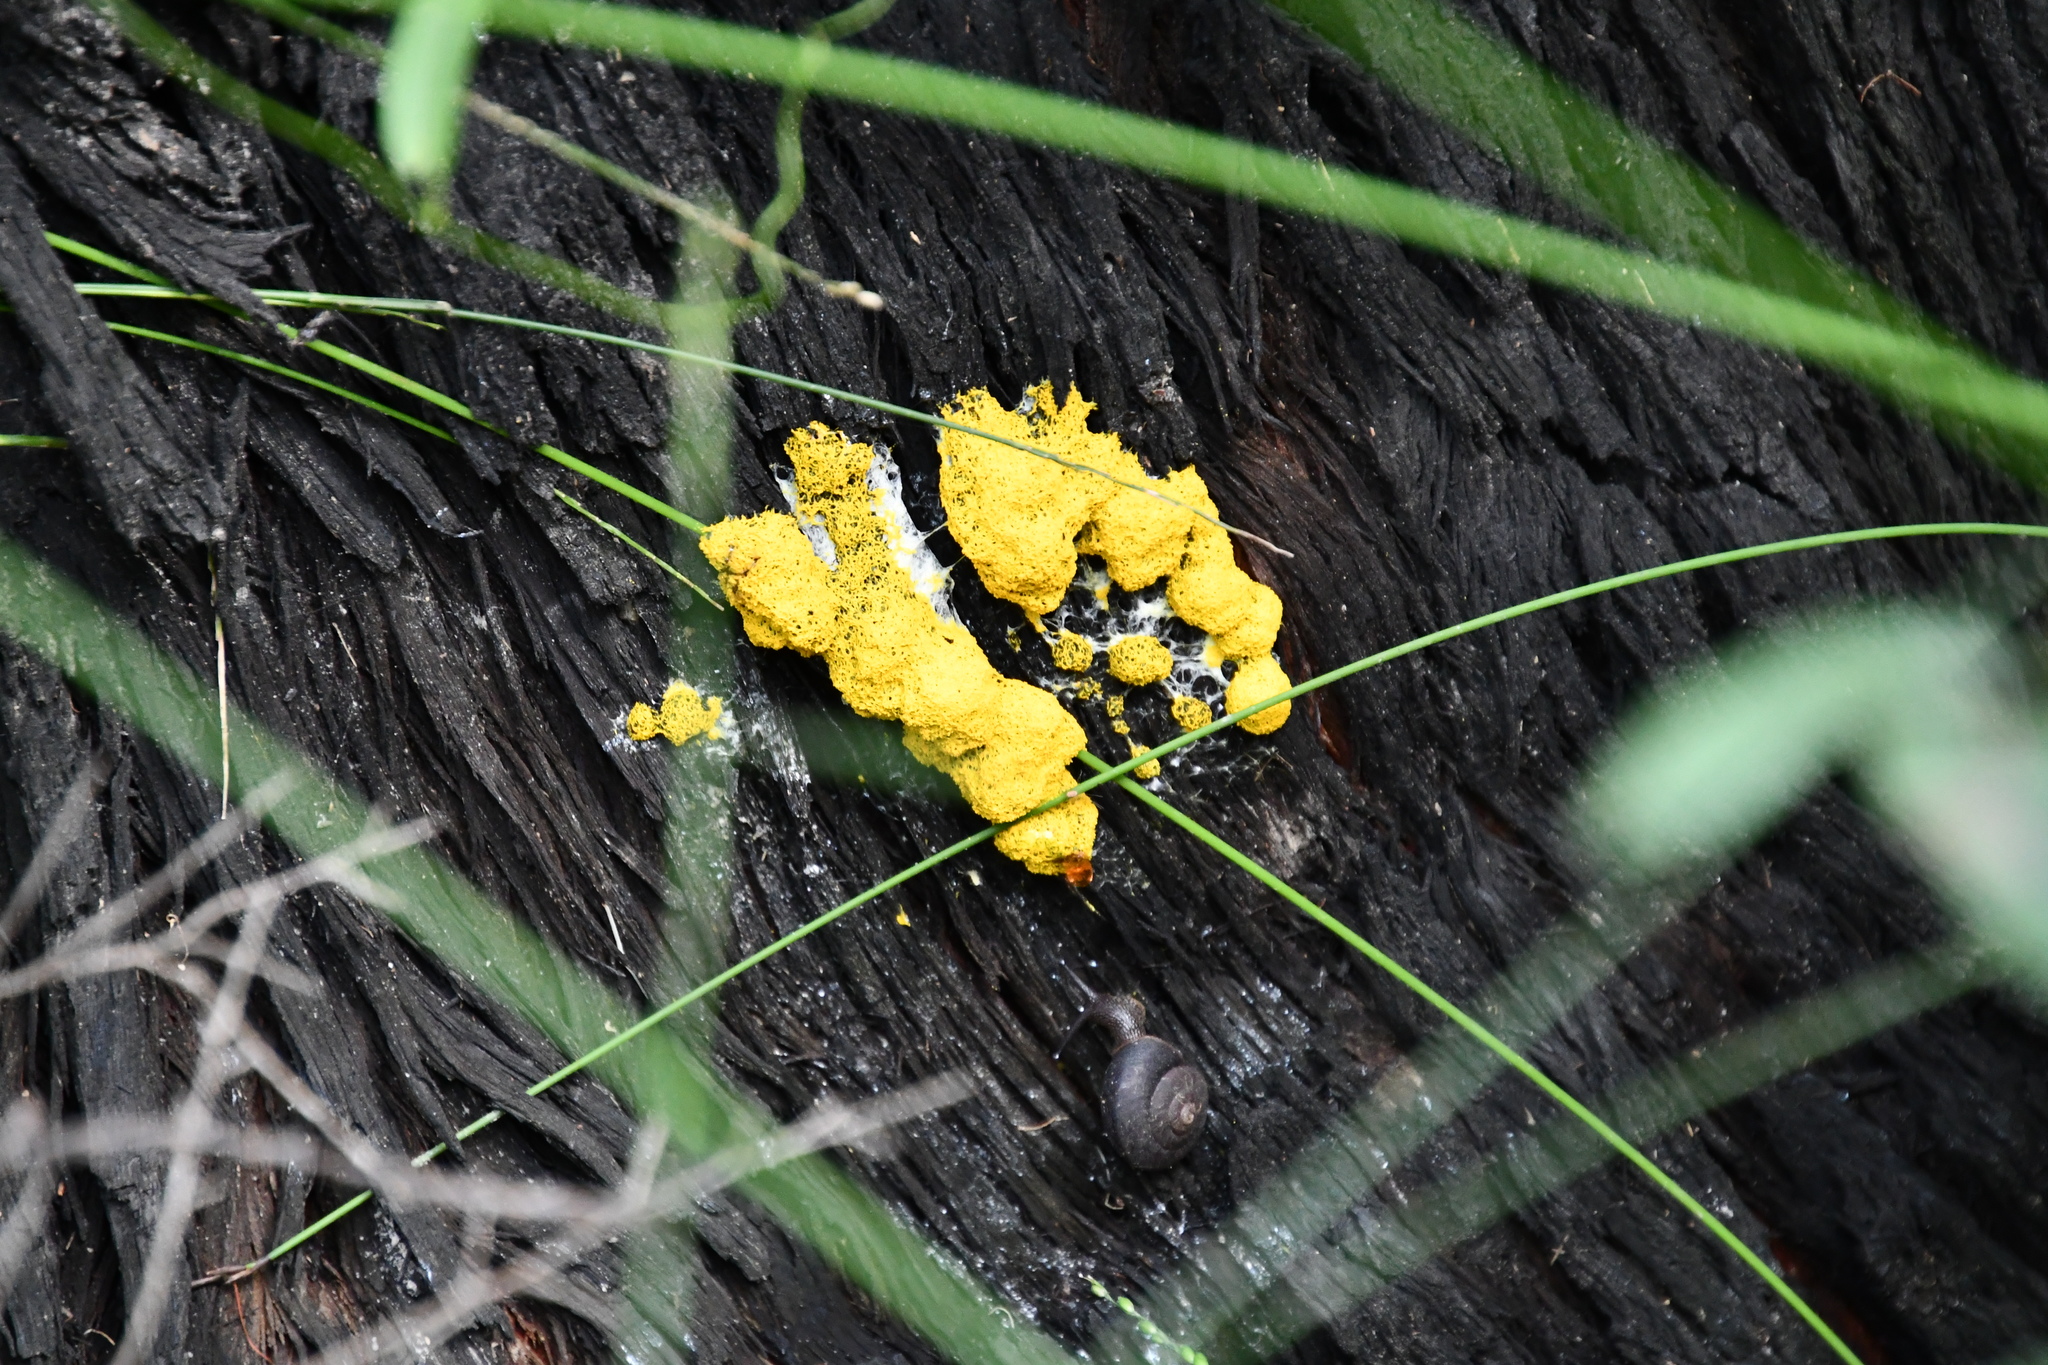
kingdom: Protozoa
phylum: Mycetozoa
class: Myxomycetes
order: Physarales
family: Physaraceae
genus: Fuligo
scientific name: Fuligo septica
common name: Dog vomit slime mold
